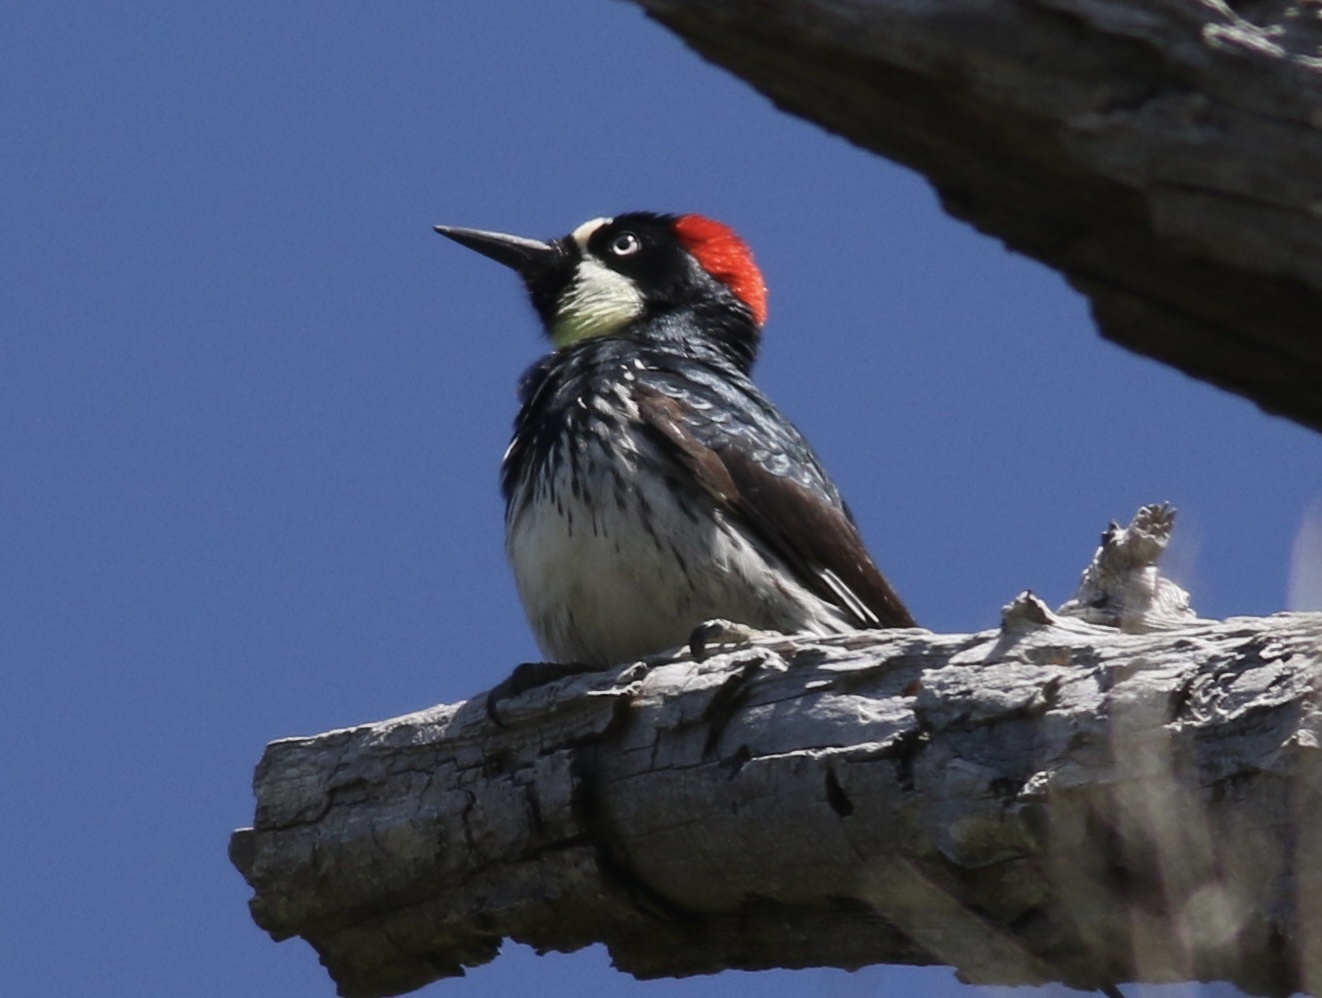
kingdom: Animalia
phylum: Chordata
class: Aves
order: Piciformes
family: Picidae
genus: Melanerpes
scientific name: Melanerpes formicivorus
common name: Acorn woodpecker
